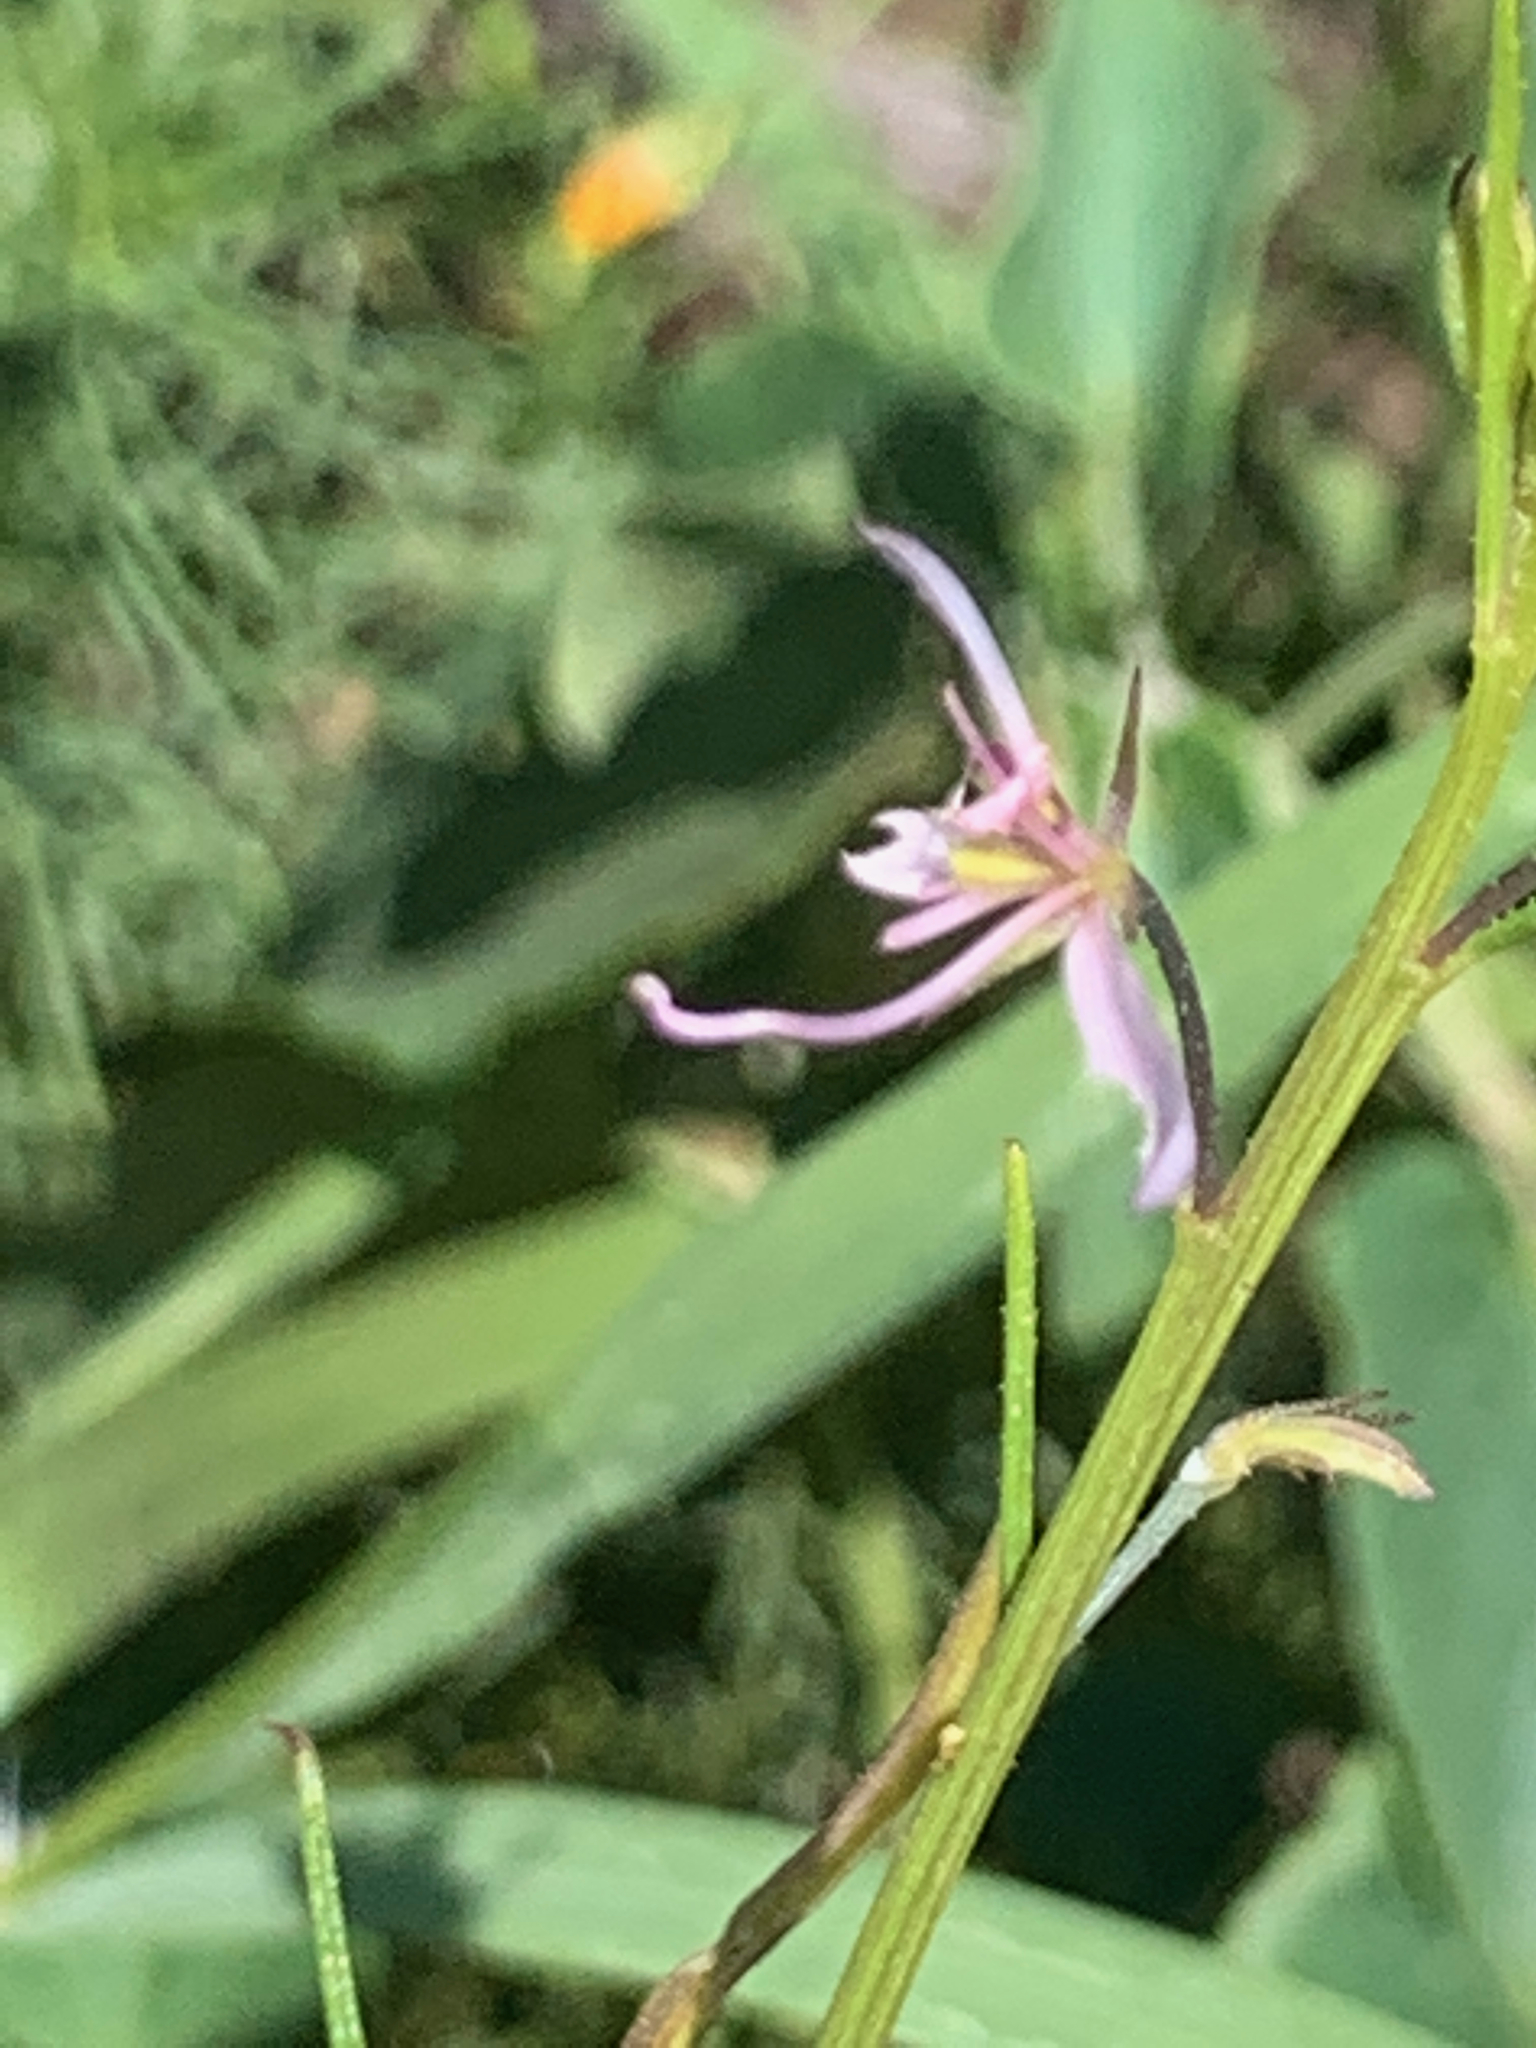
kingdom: Plantae
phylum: Tracheophyta
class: Magnoliopsida
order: Brassicales
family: Cleomaceae
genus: Sieruela
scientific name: Sieruela maculata
